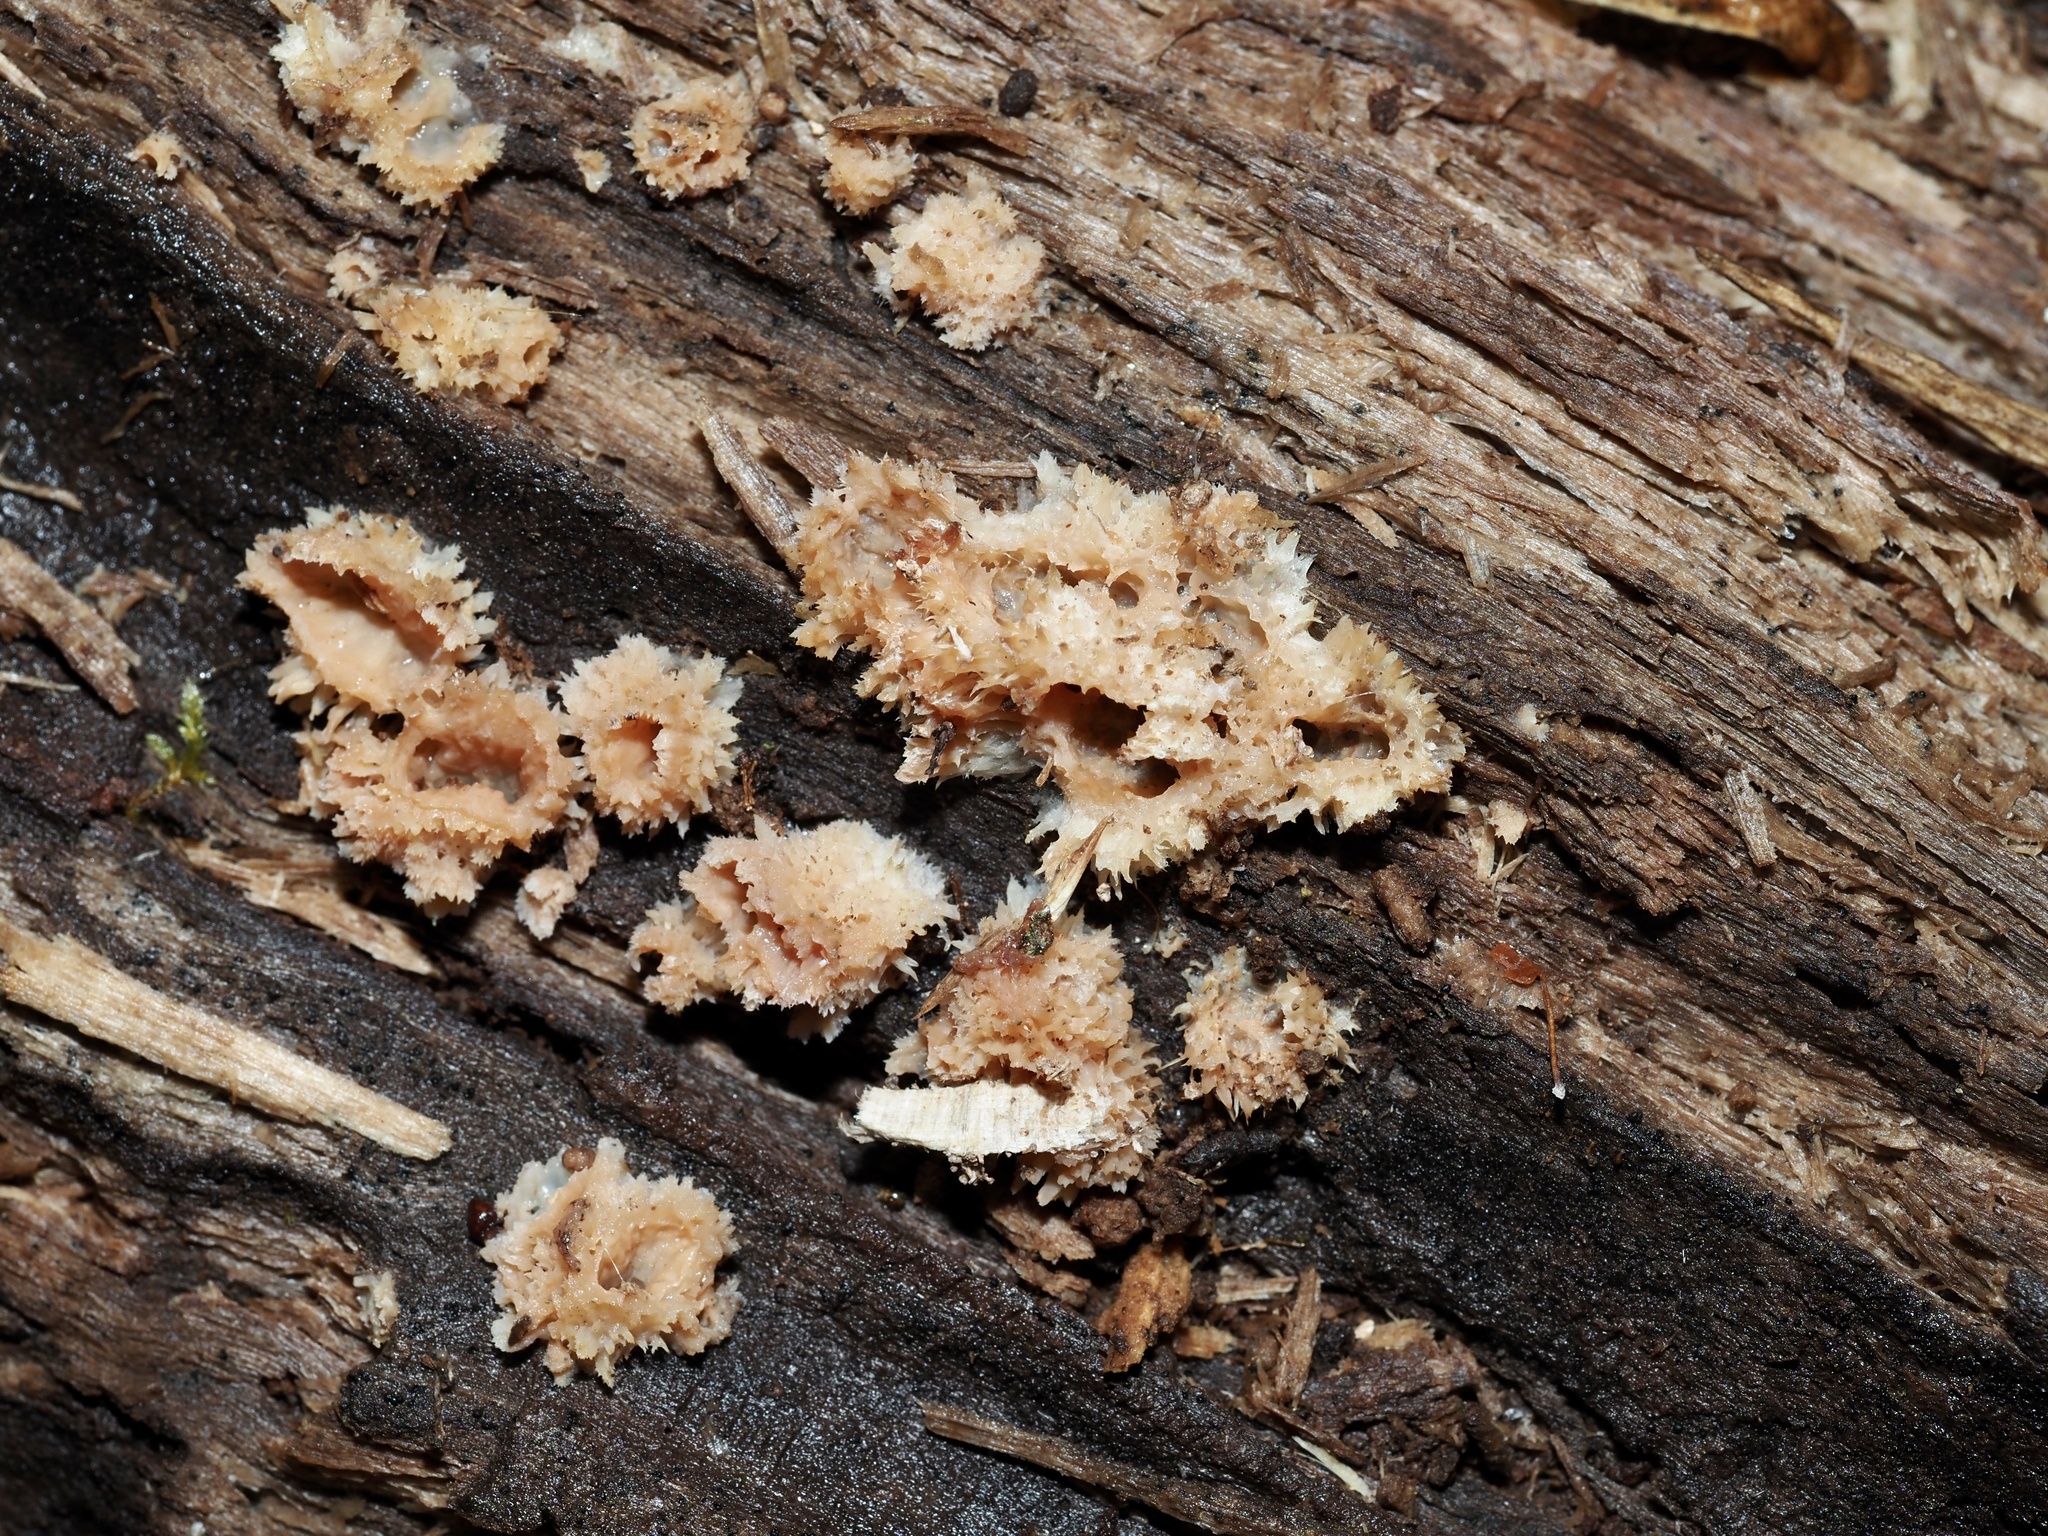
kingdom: Fungi
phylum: Basidiomycota
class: Agaricomycetes
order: Polyporales
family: Meruliaceae
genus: Phlebia
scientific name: Phlebia tremellosa
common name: Jelly rot
